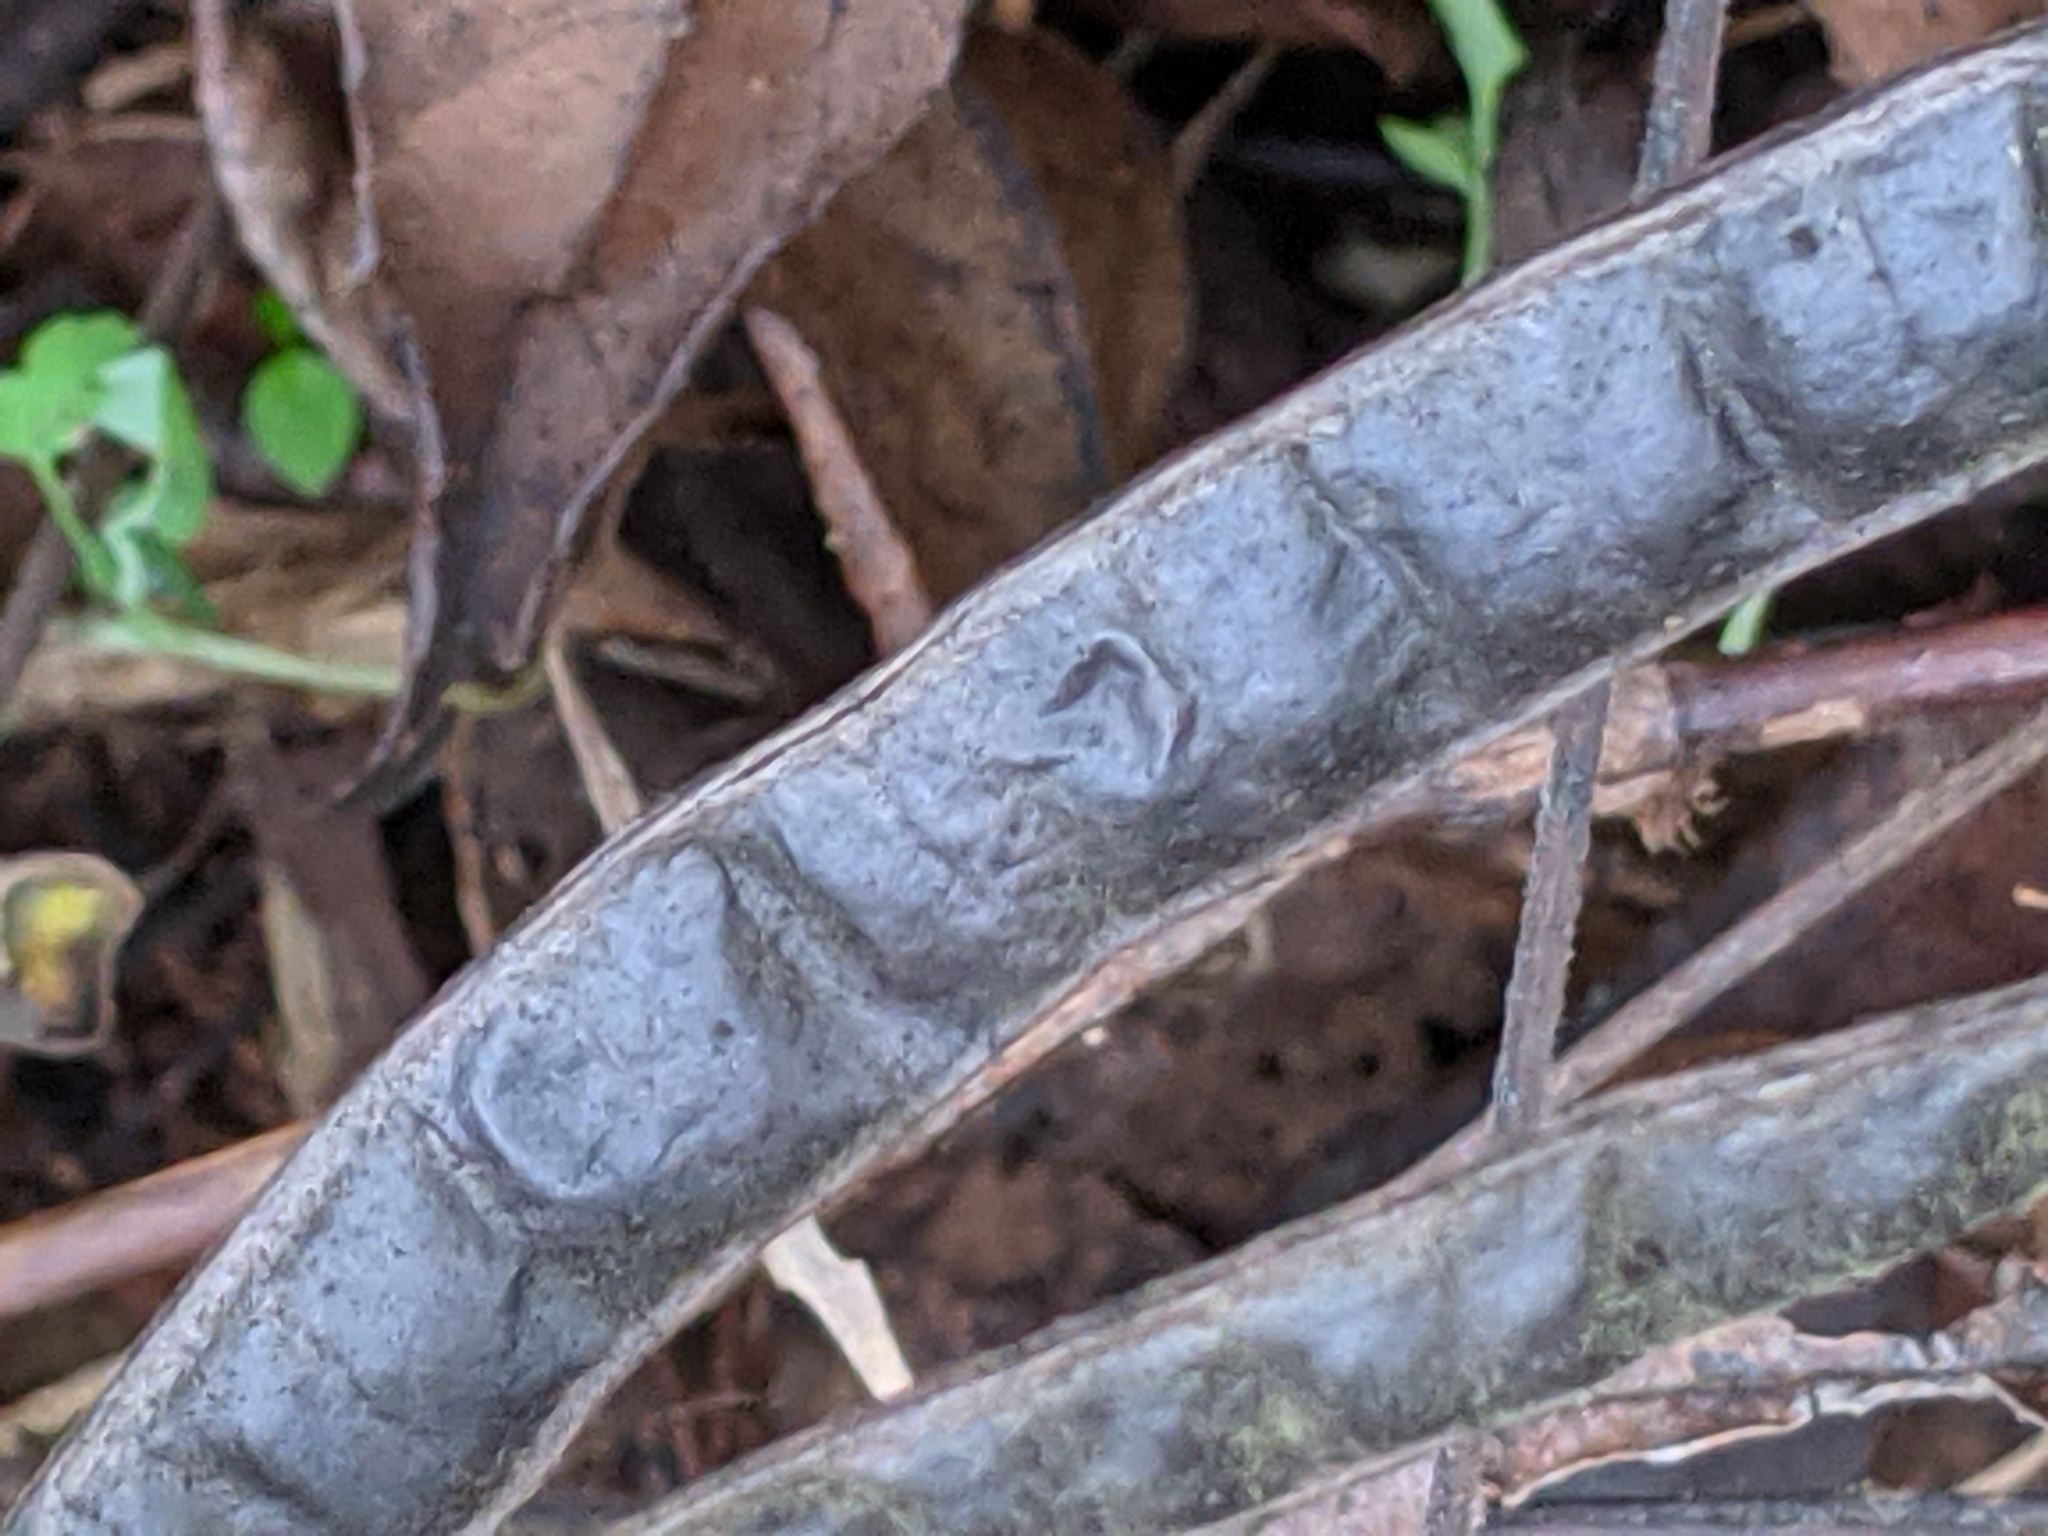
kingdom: Plantae
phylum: Tracheophyta
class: Magnoliopsida
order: Fabales
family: Fabaceae
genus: Senna
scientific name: Senna marilandica
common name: American senna
